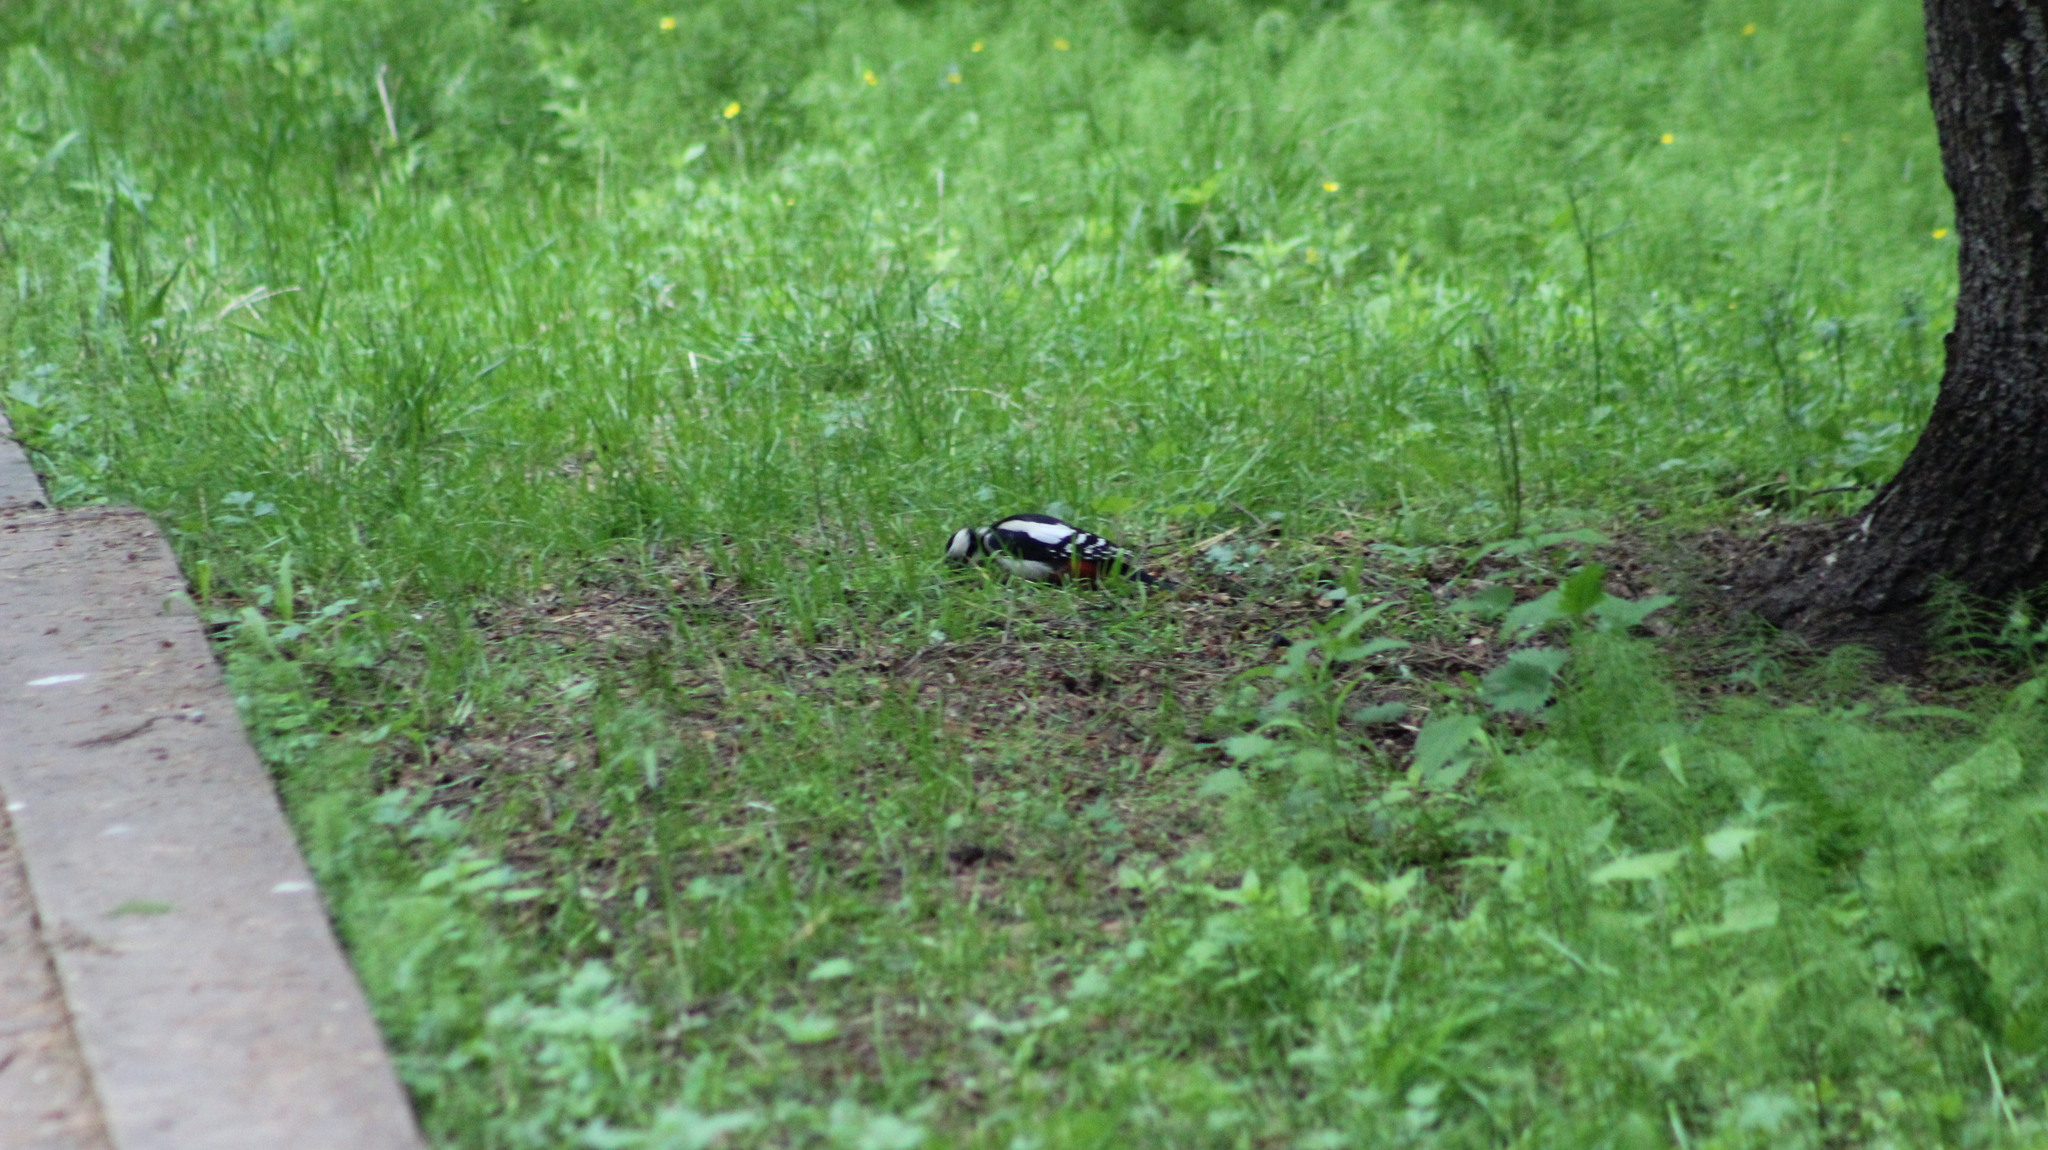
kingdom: Animalia
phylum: Chordata
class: Aves
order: Piciformes
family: Picidae
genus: Dendrocopos
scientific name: Dendrocopos major
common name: Great spotted woodpecker
